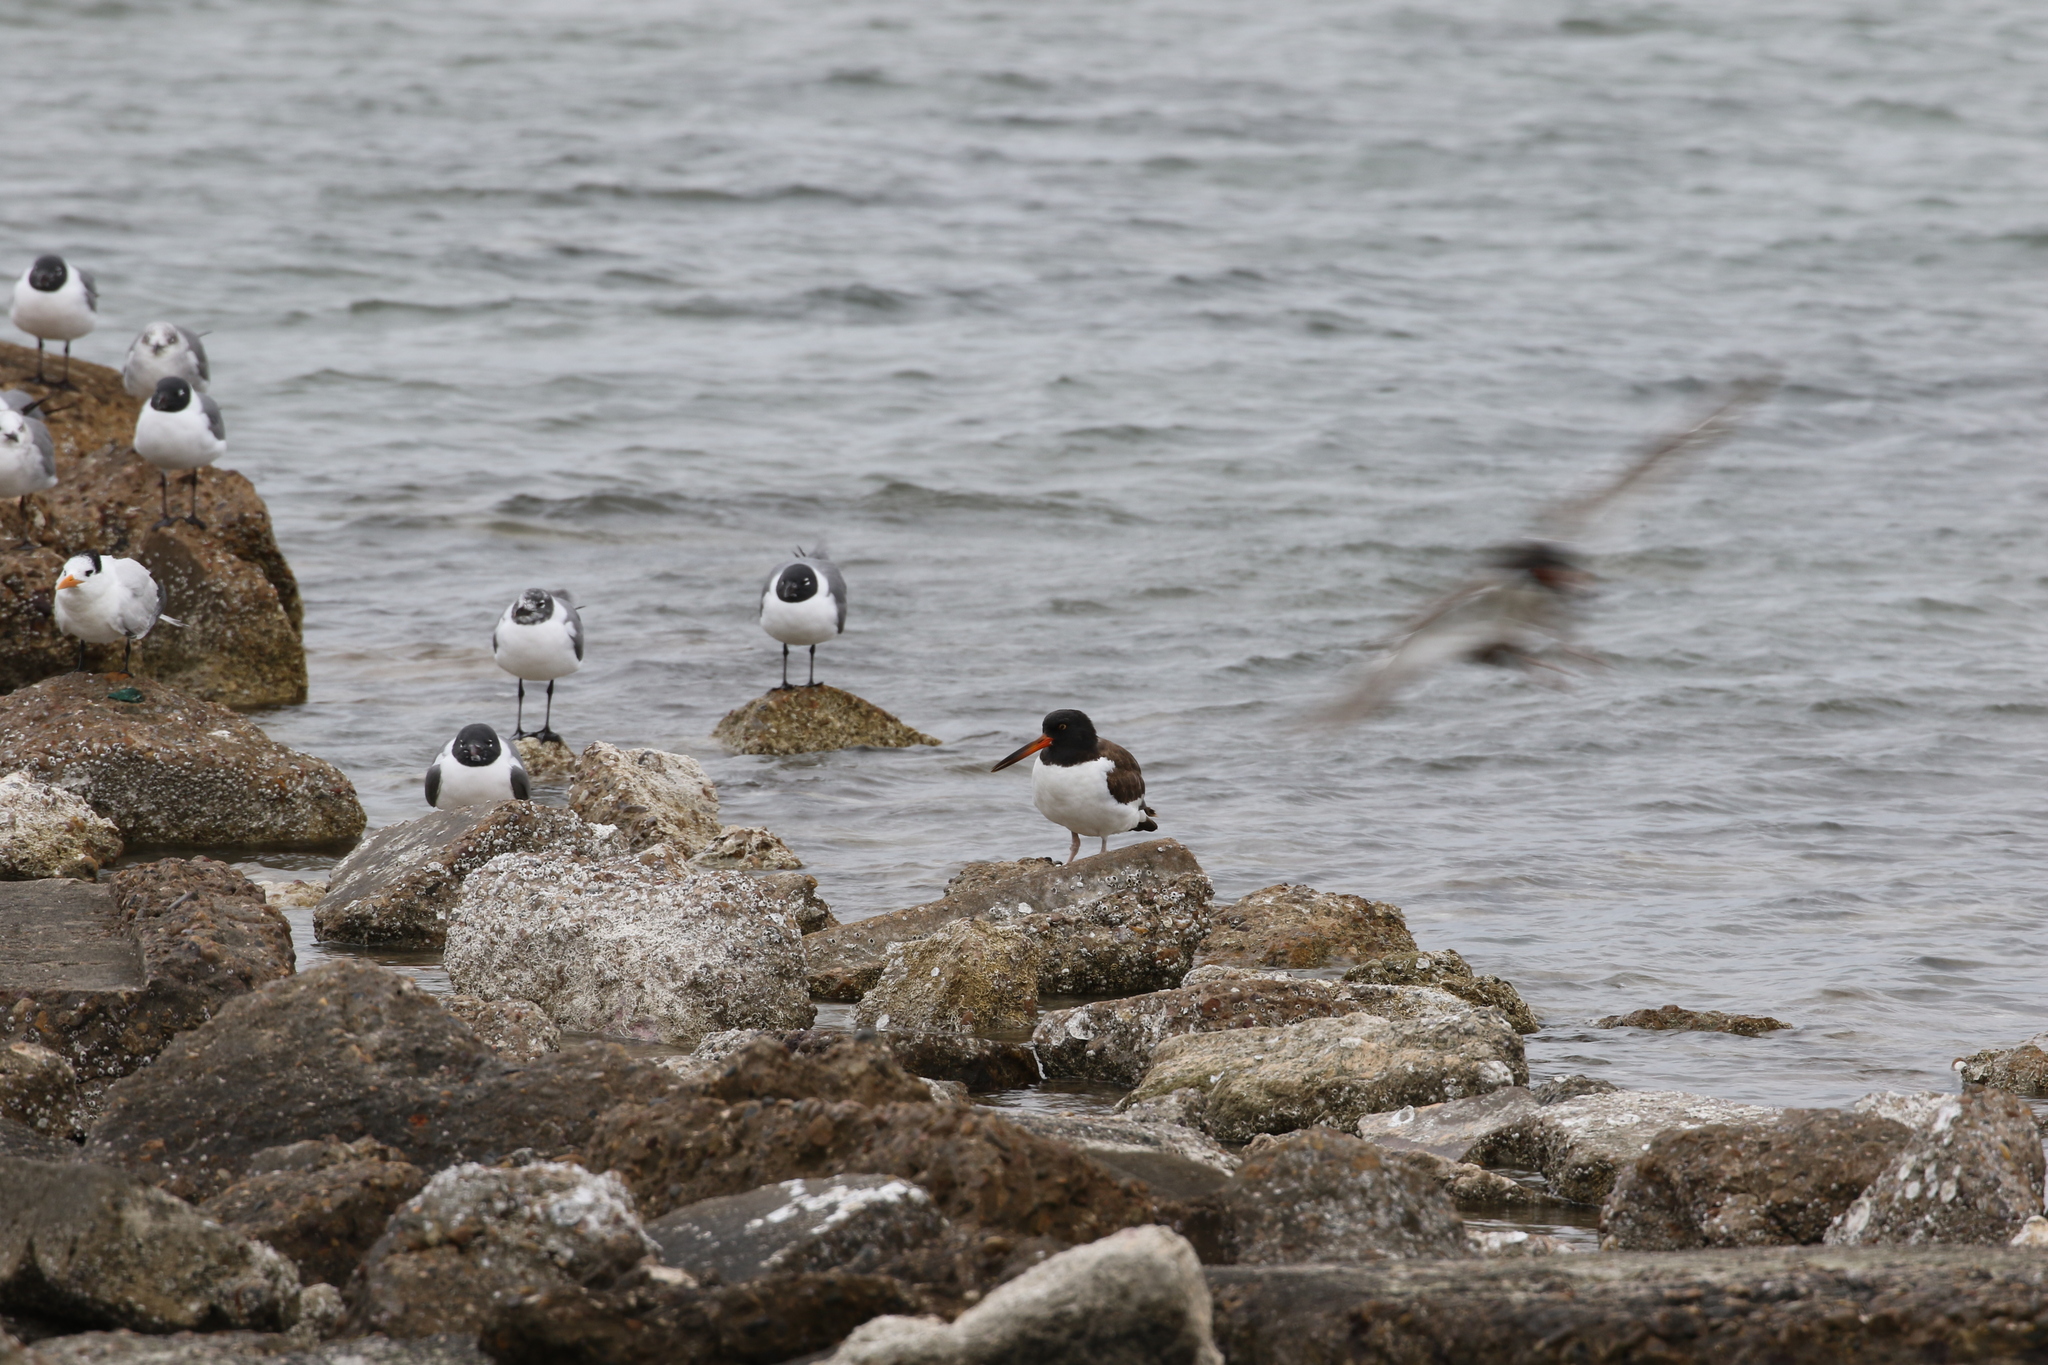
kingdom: Animalia
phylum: Chordata
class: Aves
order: Charadriiformes
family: Haematopodidae
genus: Haematopus
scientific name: Haematopus palliatus
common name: American oystercatcher
